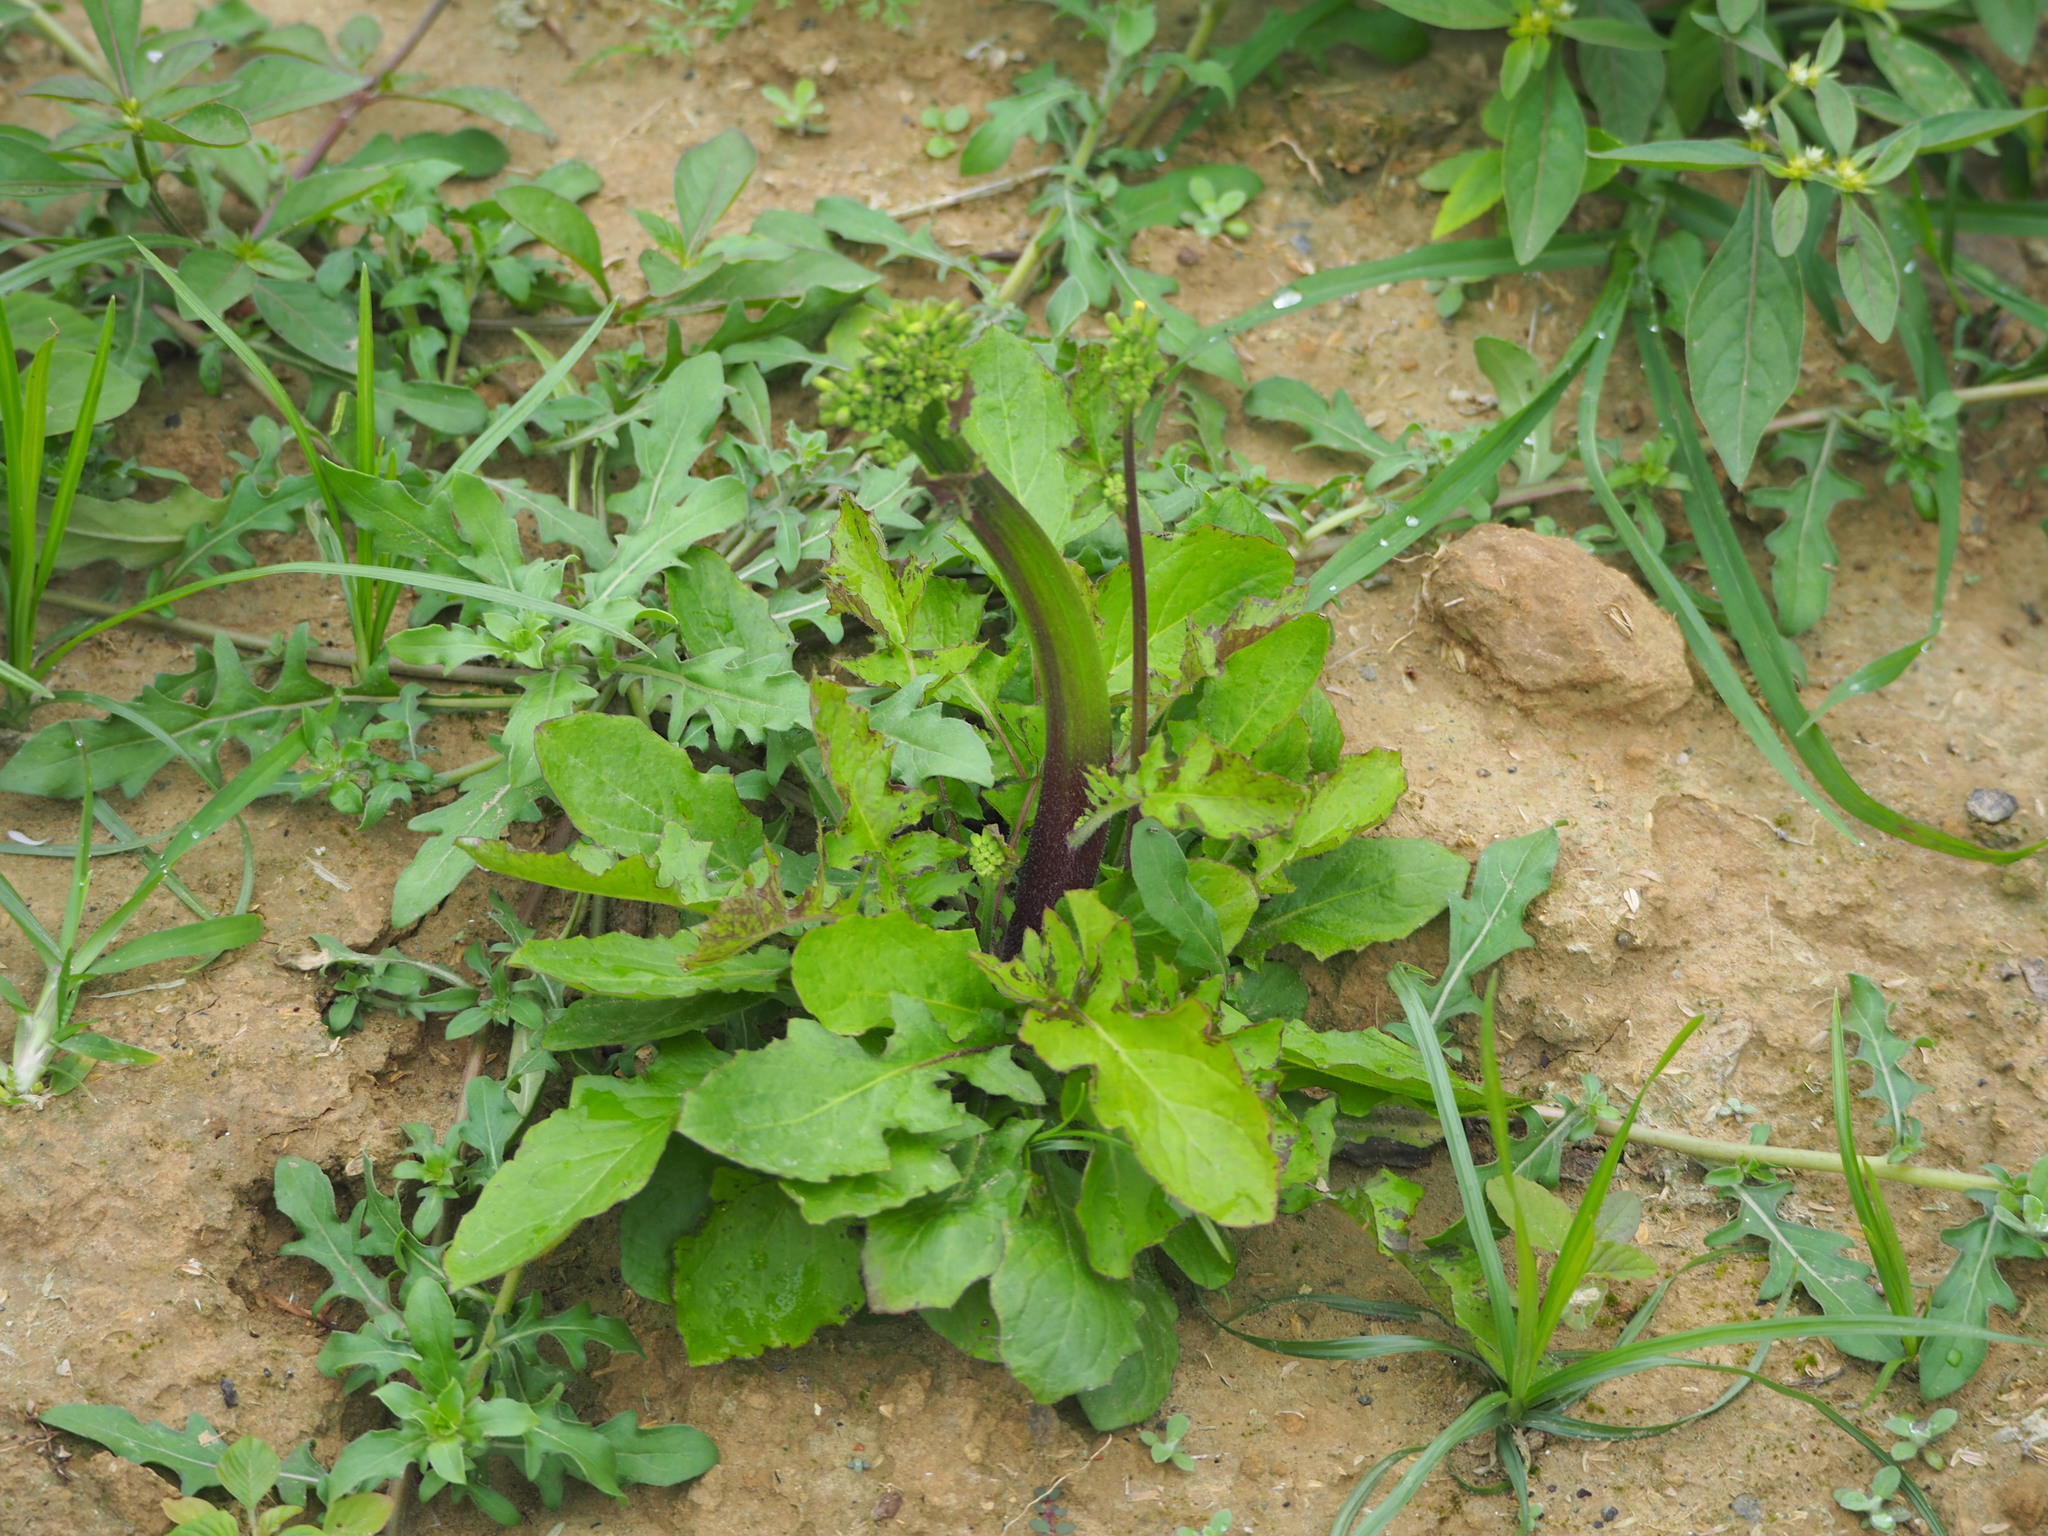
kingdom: Plantae
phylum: Tracheophyta
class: Magnoliopsida
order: Asterales
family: Asteraceae
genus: Youngia
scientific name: Youngia japonica
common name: Oriental false hawksbeard
